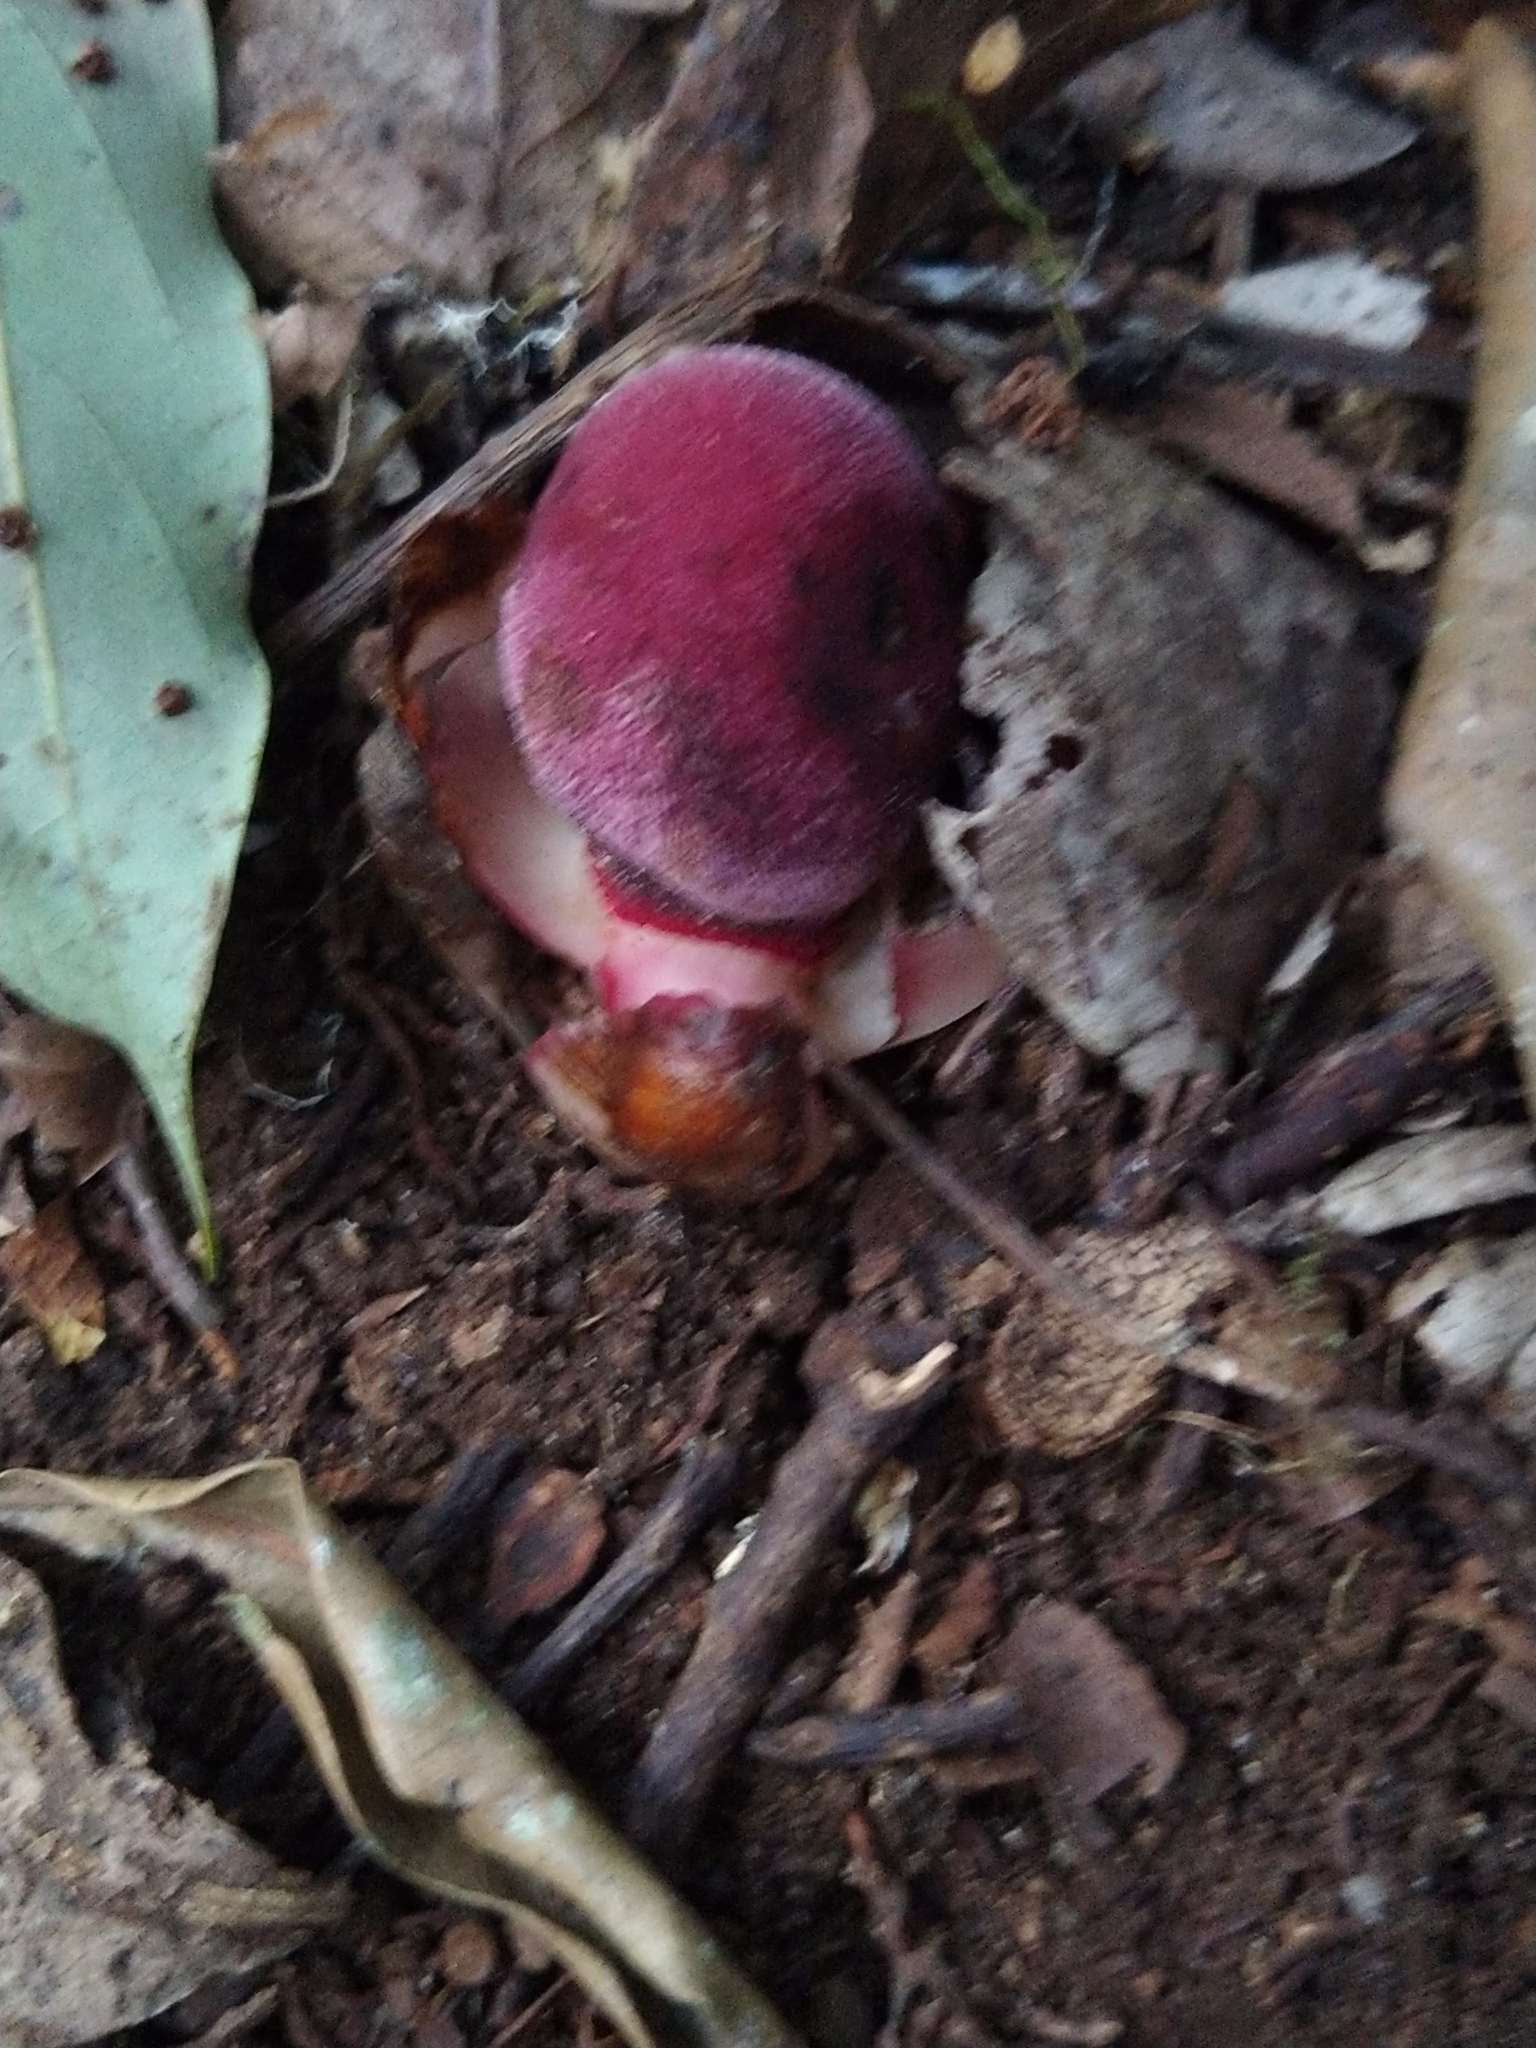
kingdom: Plantae
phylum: Tracheophyta
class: Magnoliopsida
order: Santalales
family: Balanophoraceae
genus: Balanophora
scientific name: Balanophora fungosa
